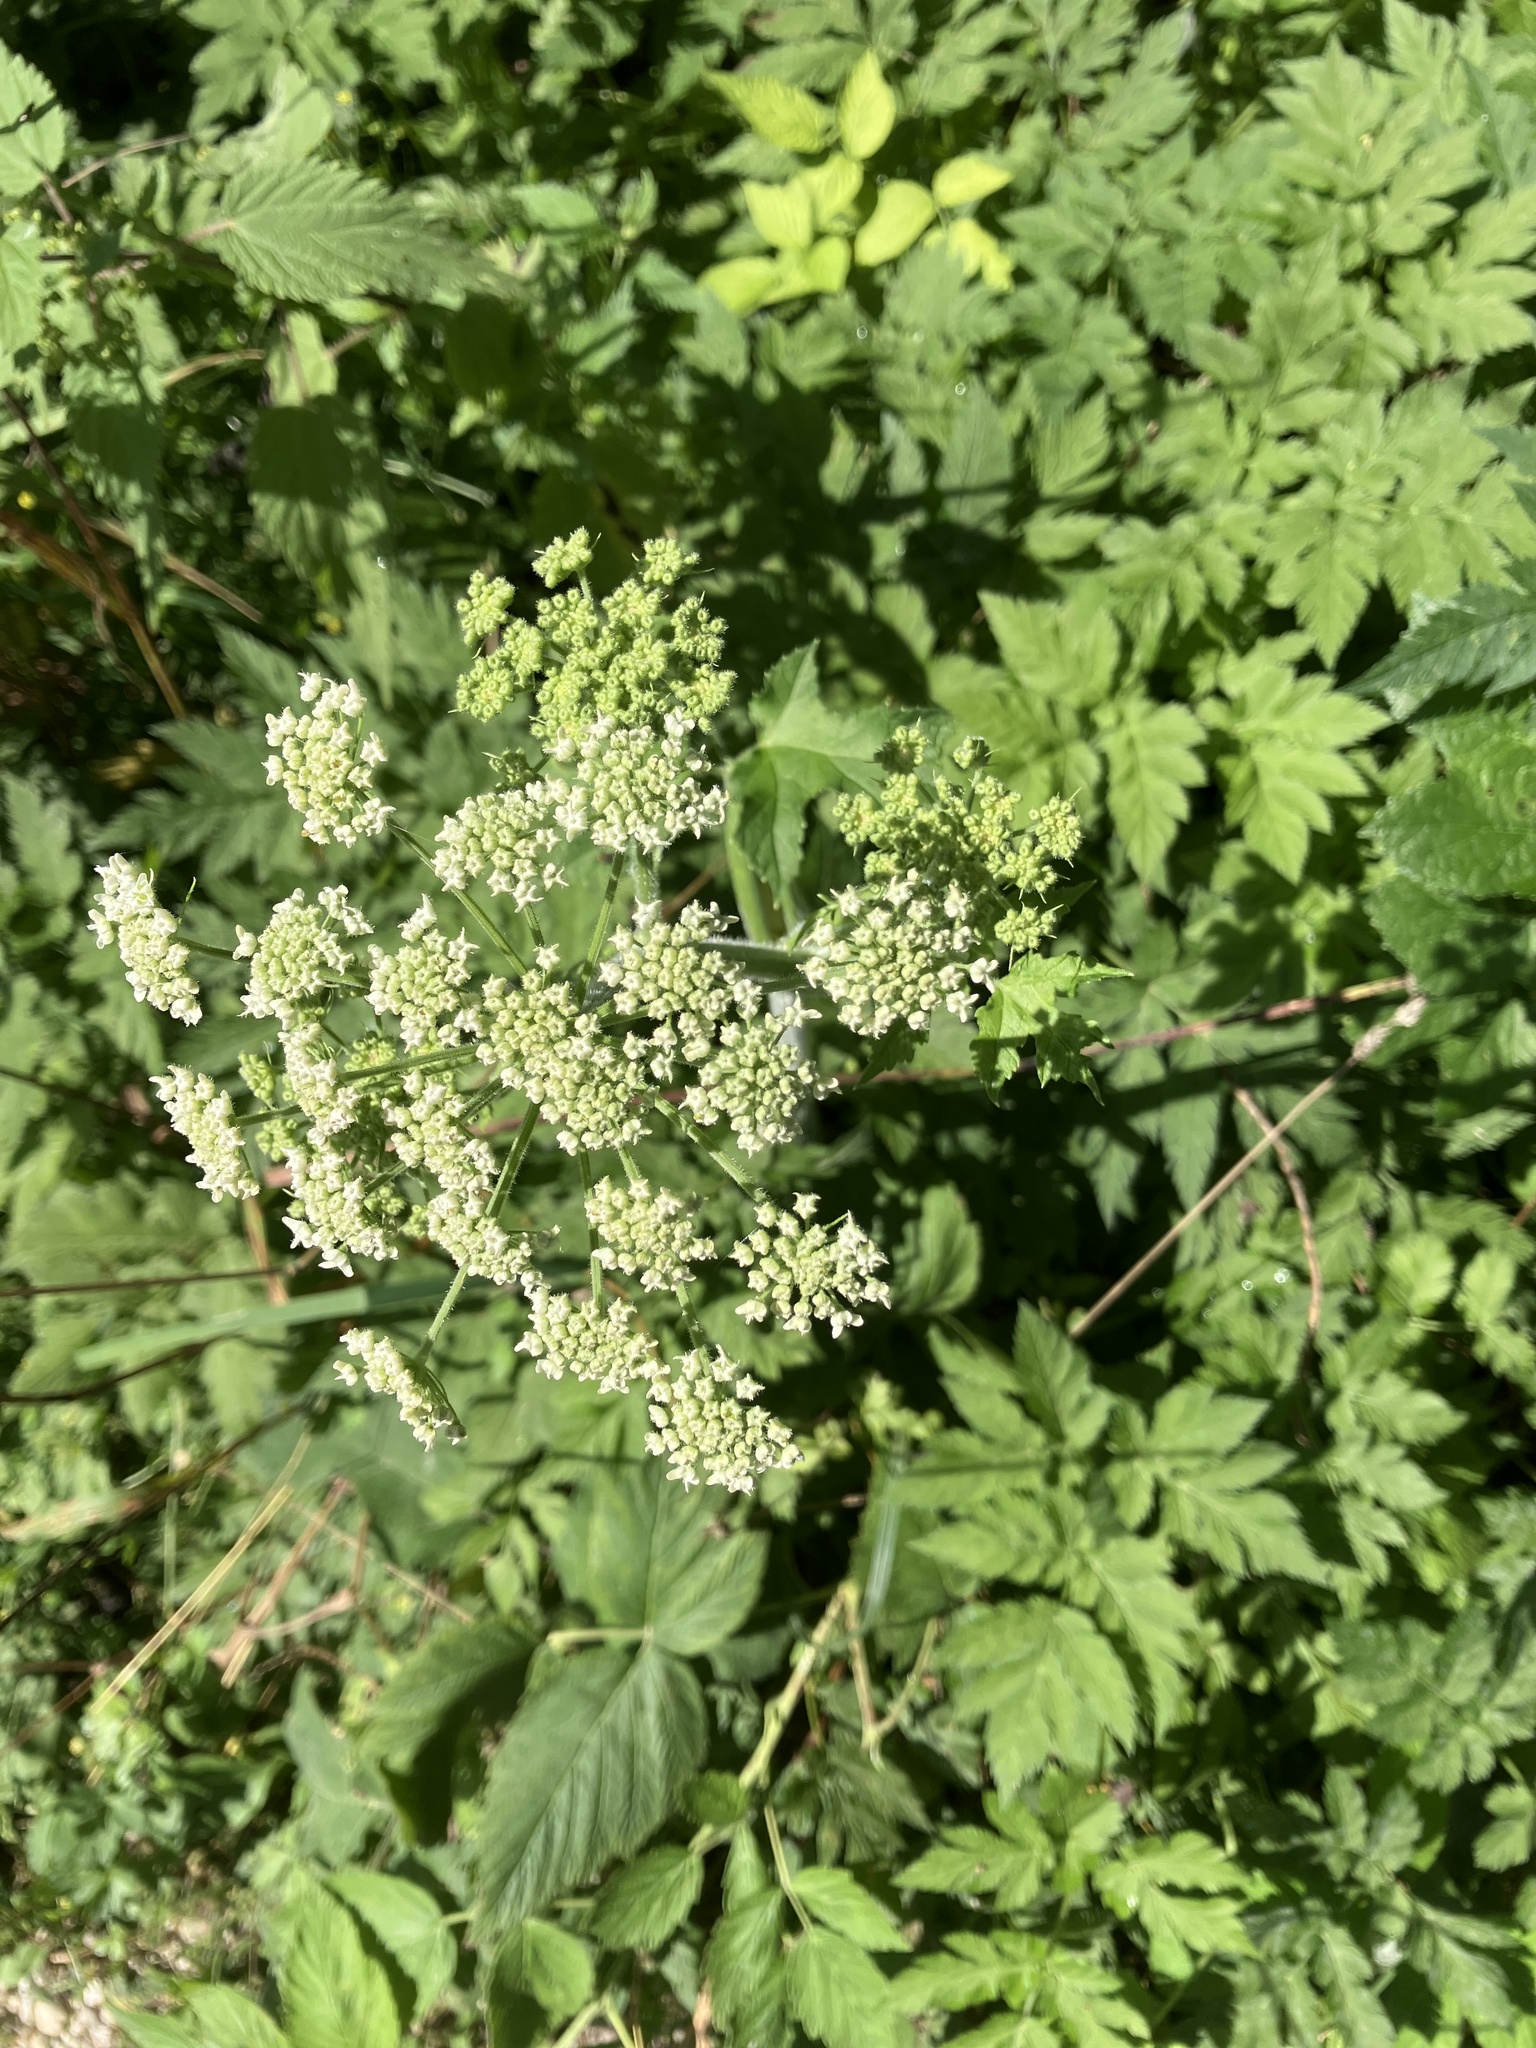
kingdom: Plantae
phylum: Tracheophyta
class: Magnoliopsida
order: Apiales
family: Apiaceae
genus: Heracleum
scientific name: Heracleum sphondylium
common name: Hogweed
